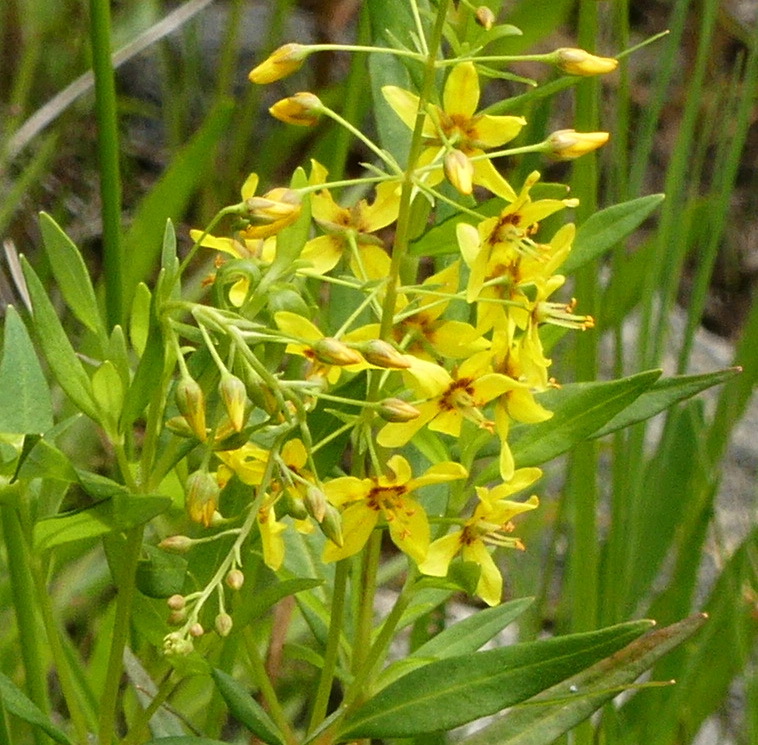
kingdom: Plantae
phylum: Tracheophyta
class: Magnoliopsida
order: Ericales
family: Primulaceae
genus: Lysimachia
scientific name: Lysimachia terrestris
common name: Lake loosestrife
